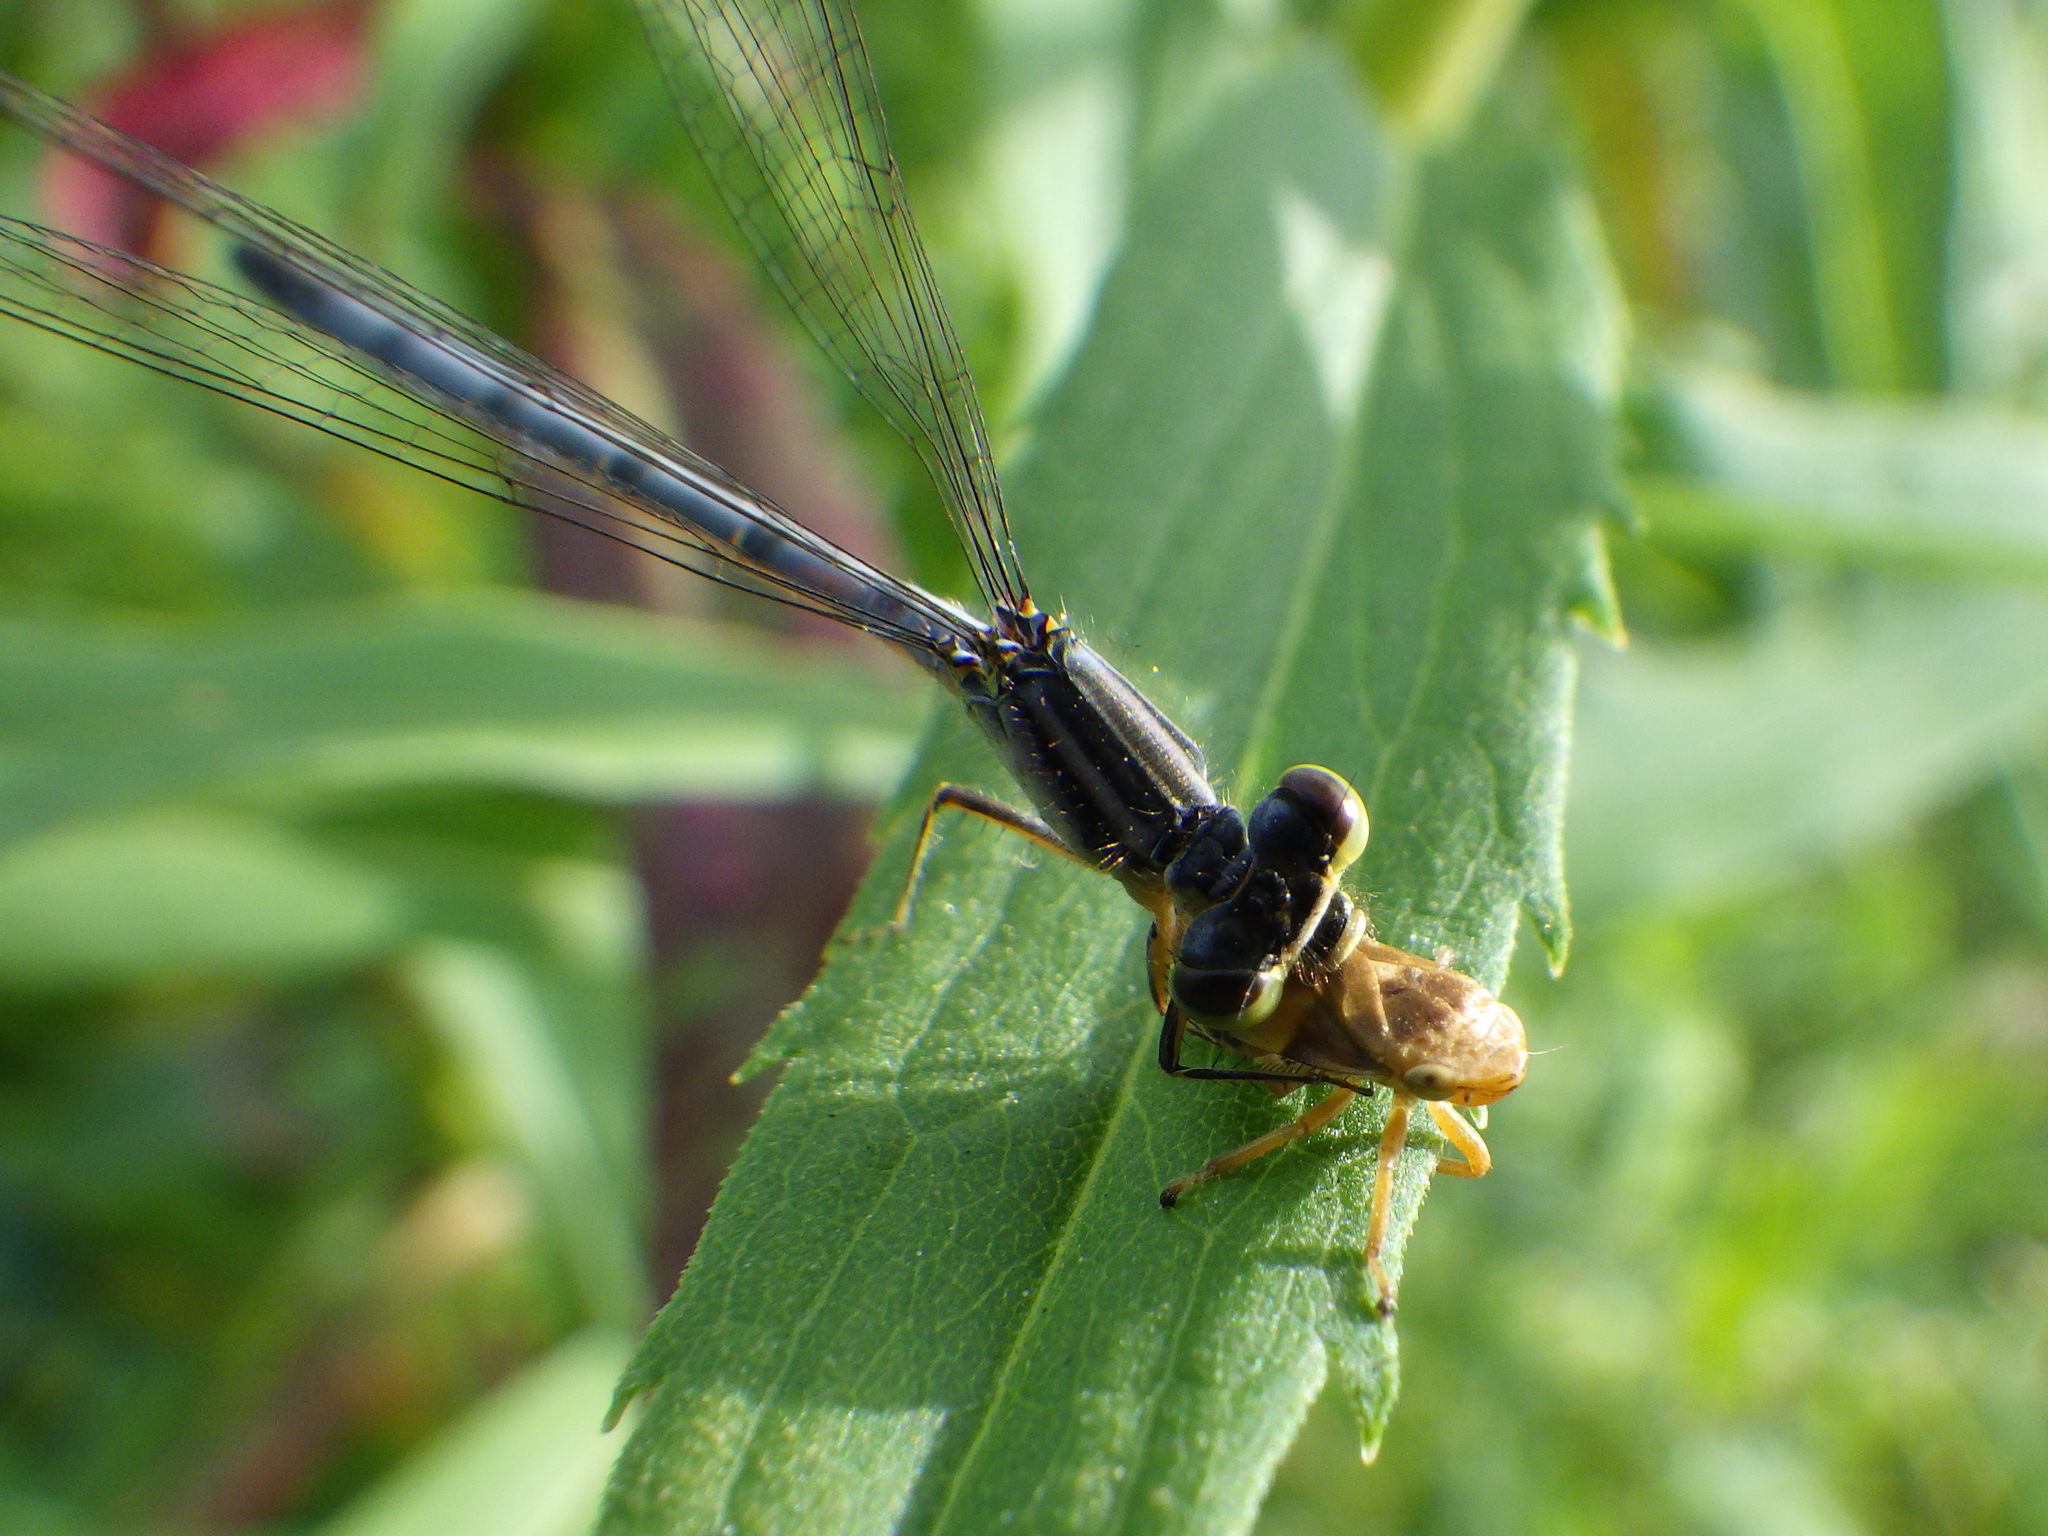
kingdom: Animalia
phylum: Arthropoda
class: Insecta
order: Hemiptera
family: Aphrophoridae
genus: Philaenus
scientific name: Philaenus spumarius
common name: Meadow spittlebug
